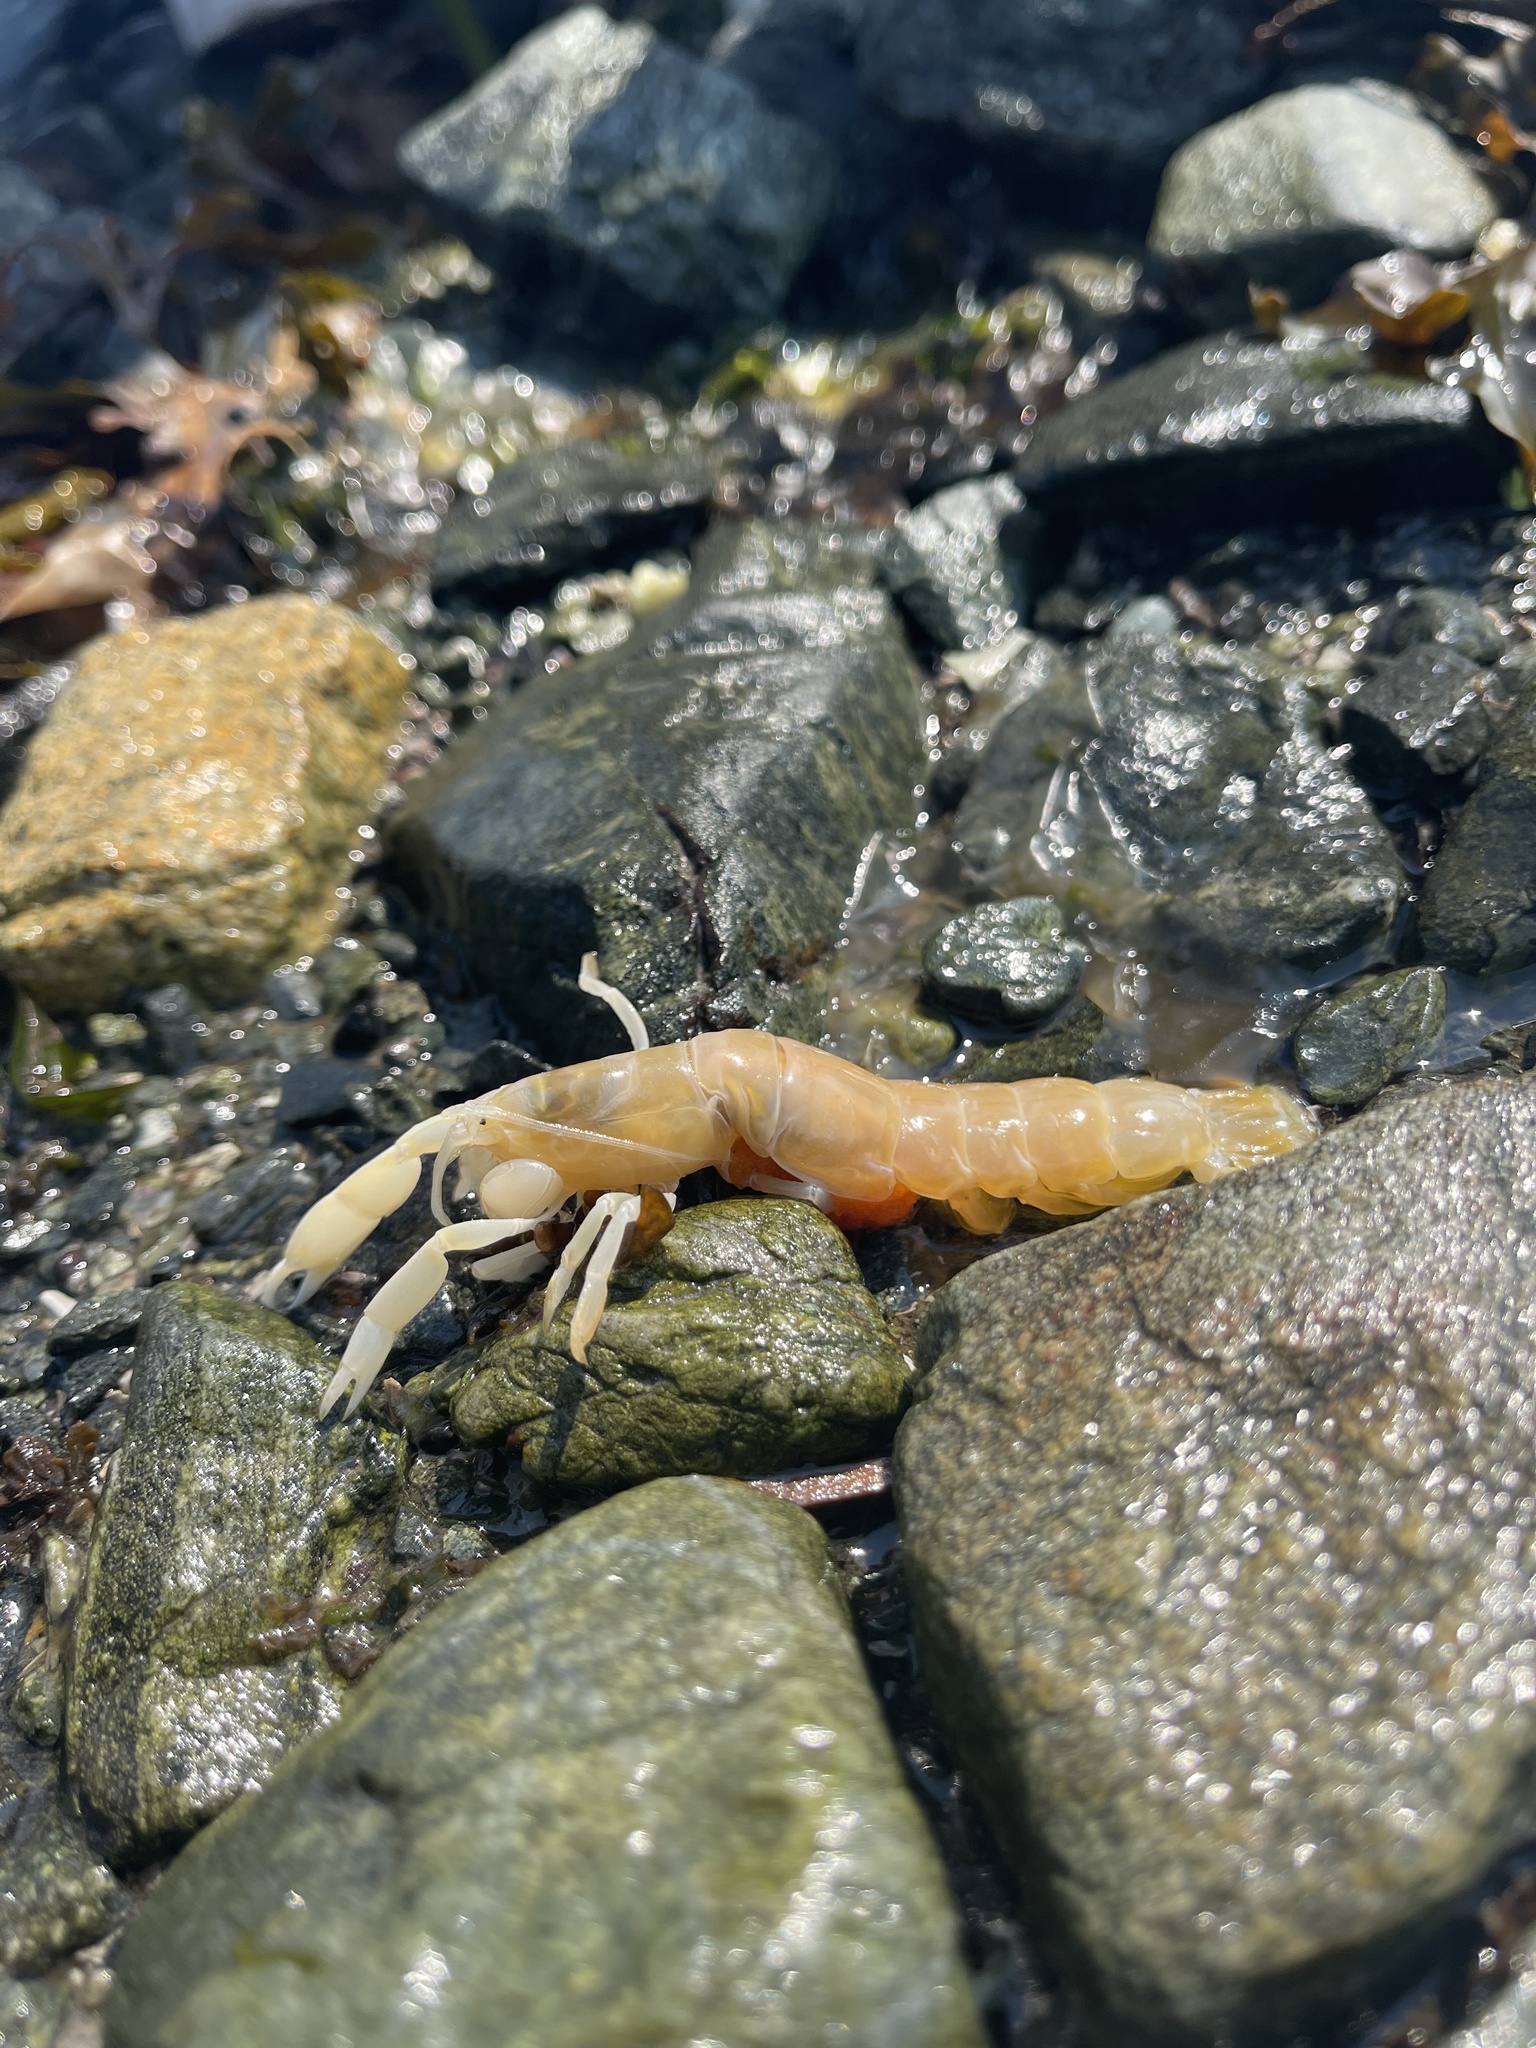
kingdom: Animalia
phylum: Arthropoda
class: Malacostraca
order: Decapoda
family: Callianassidae
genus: Neotrypaea
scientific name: Neotrypaea californiensis
